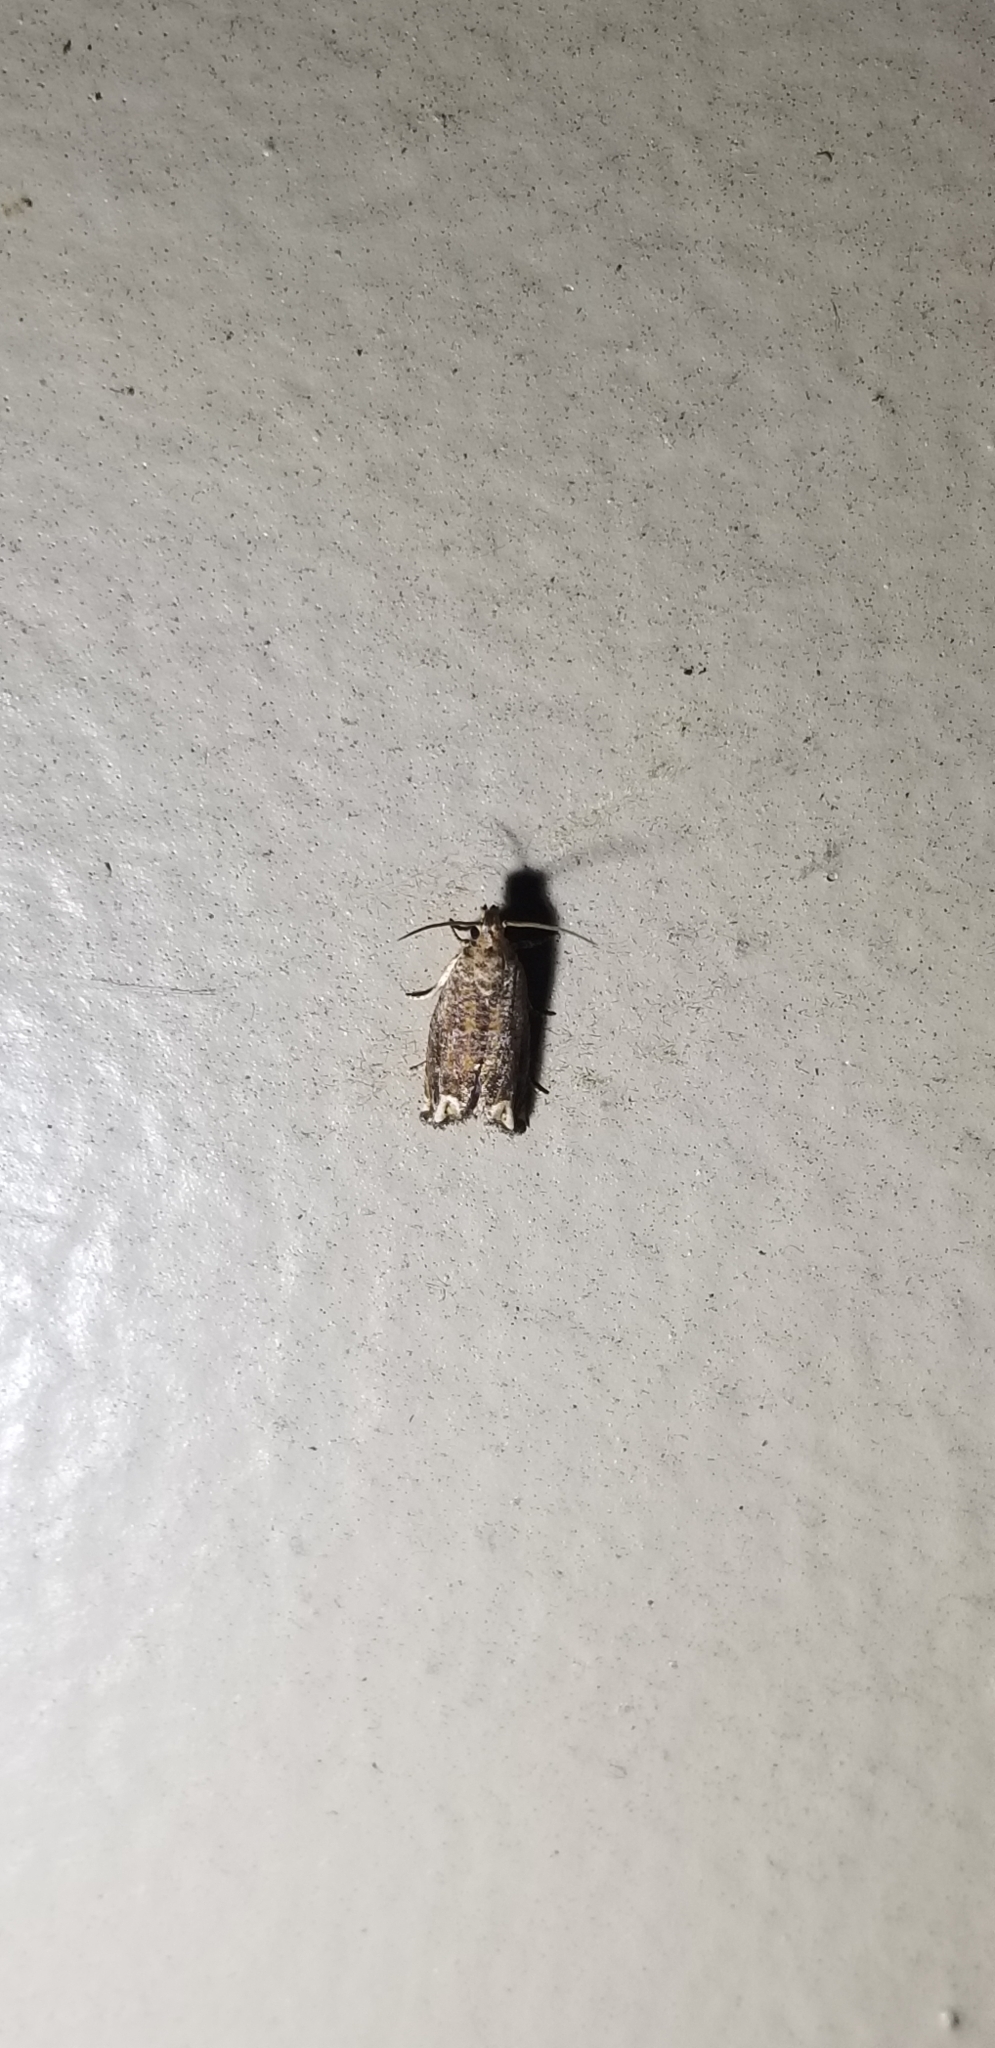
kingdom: Animalia
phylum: Arthropoda
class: Insecta
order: Lepidoptera
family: Tortricidae
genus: Epiblema
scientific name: Epiblema abruptana
